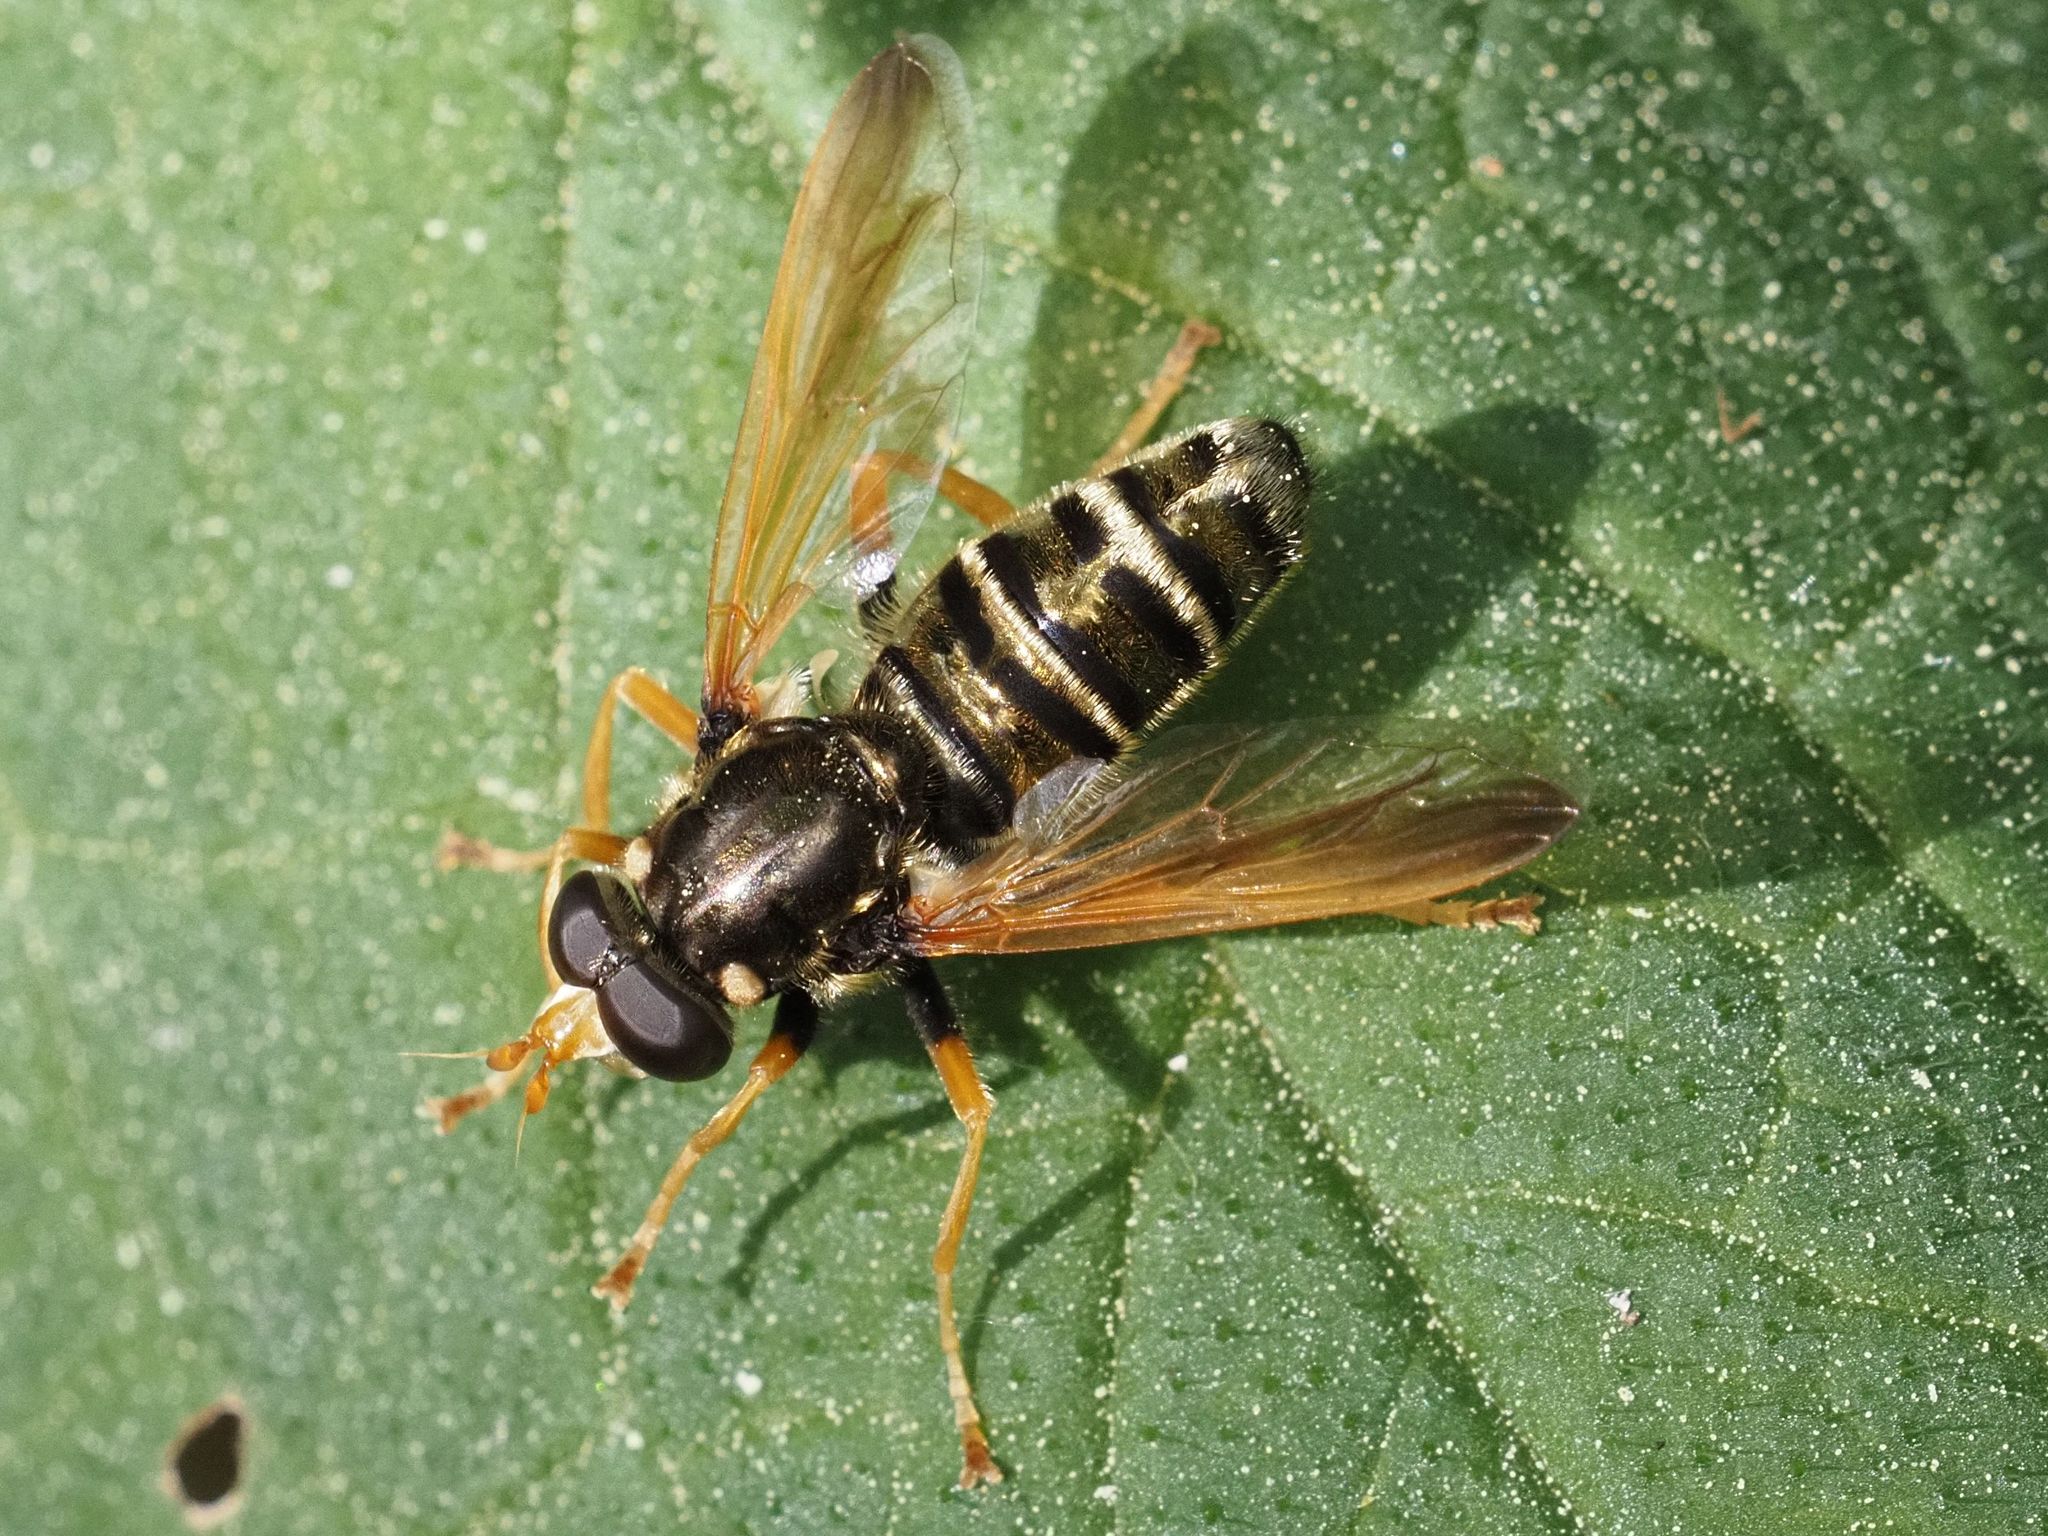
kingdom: Animalia
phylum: Arthropoda
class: Insecta
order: Diptera
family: Syrphidae
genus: Caliprobola
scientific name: Caliprobola speciosa
